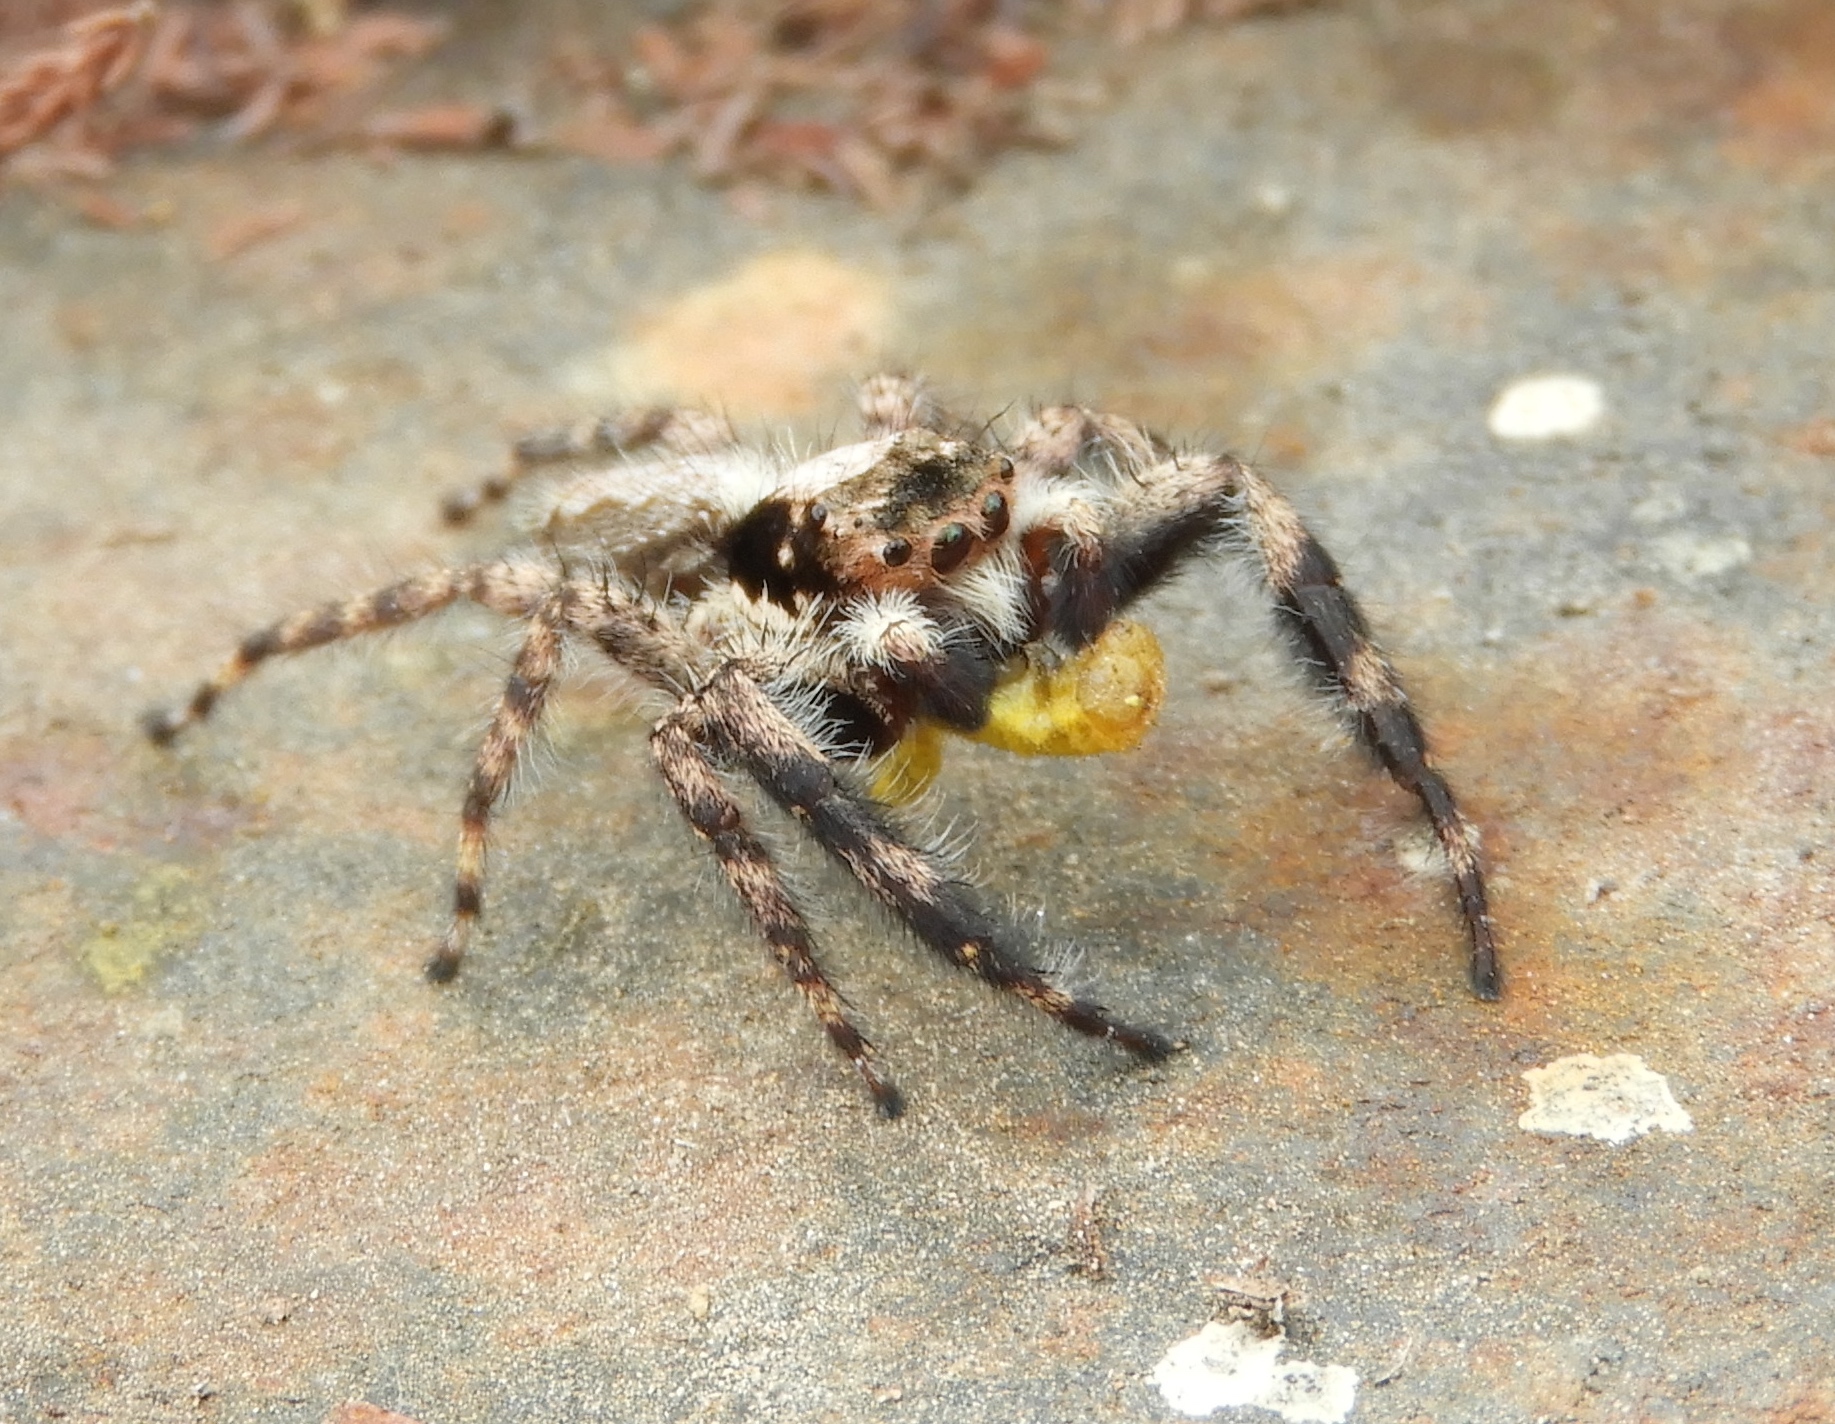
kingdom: Animalia
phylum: Arthropoda
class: Arachnida
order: Araneae
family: Salticidae
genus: Balmaceda
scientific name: Balmaceda
